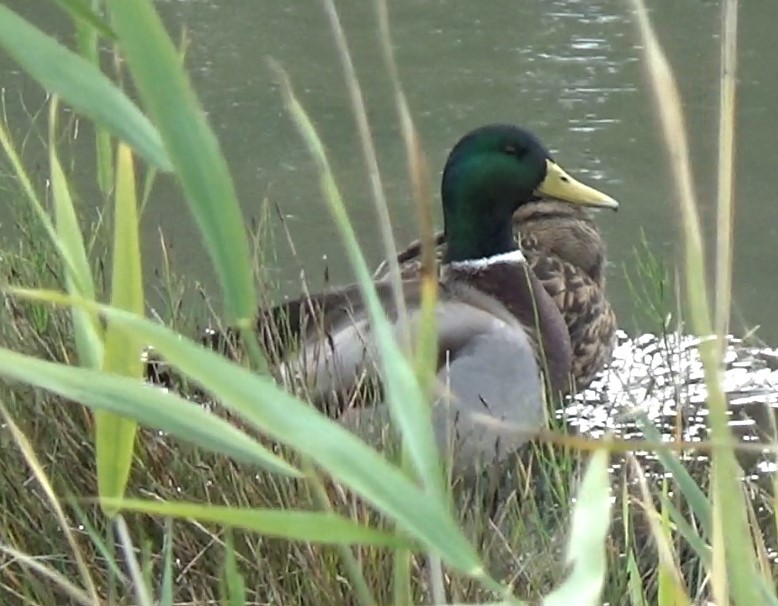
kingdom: Animalia
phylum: Chordata
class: Aves
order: Anseriformes
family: Anatidae
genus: Anas
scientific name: Anas platyrhynchos
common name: Mallard
